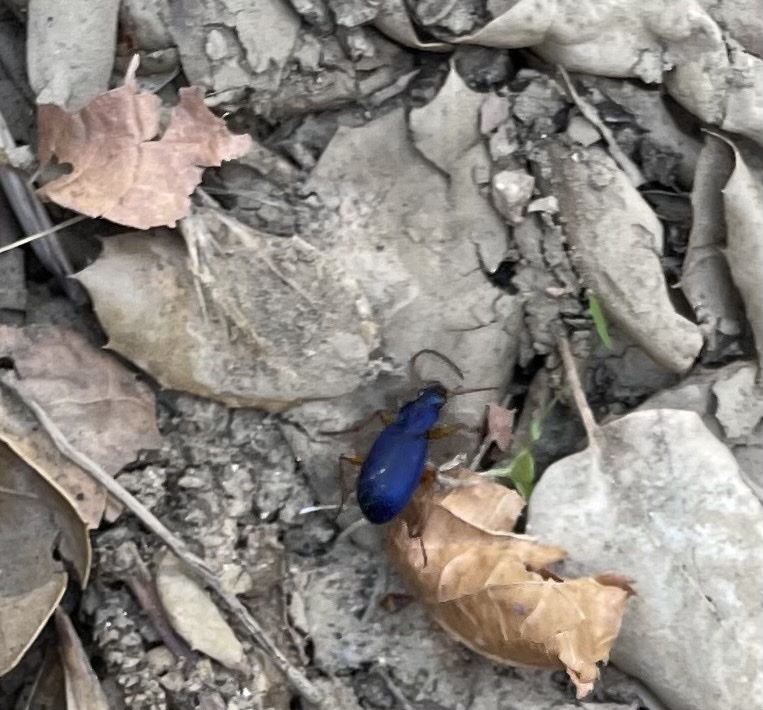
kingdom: Animalia
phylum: Arthropoda
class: Insecta
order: Coleoptera
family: Carabidae
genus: Chlaenius
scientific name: Chlaenius cumatilis
